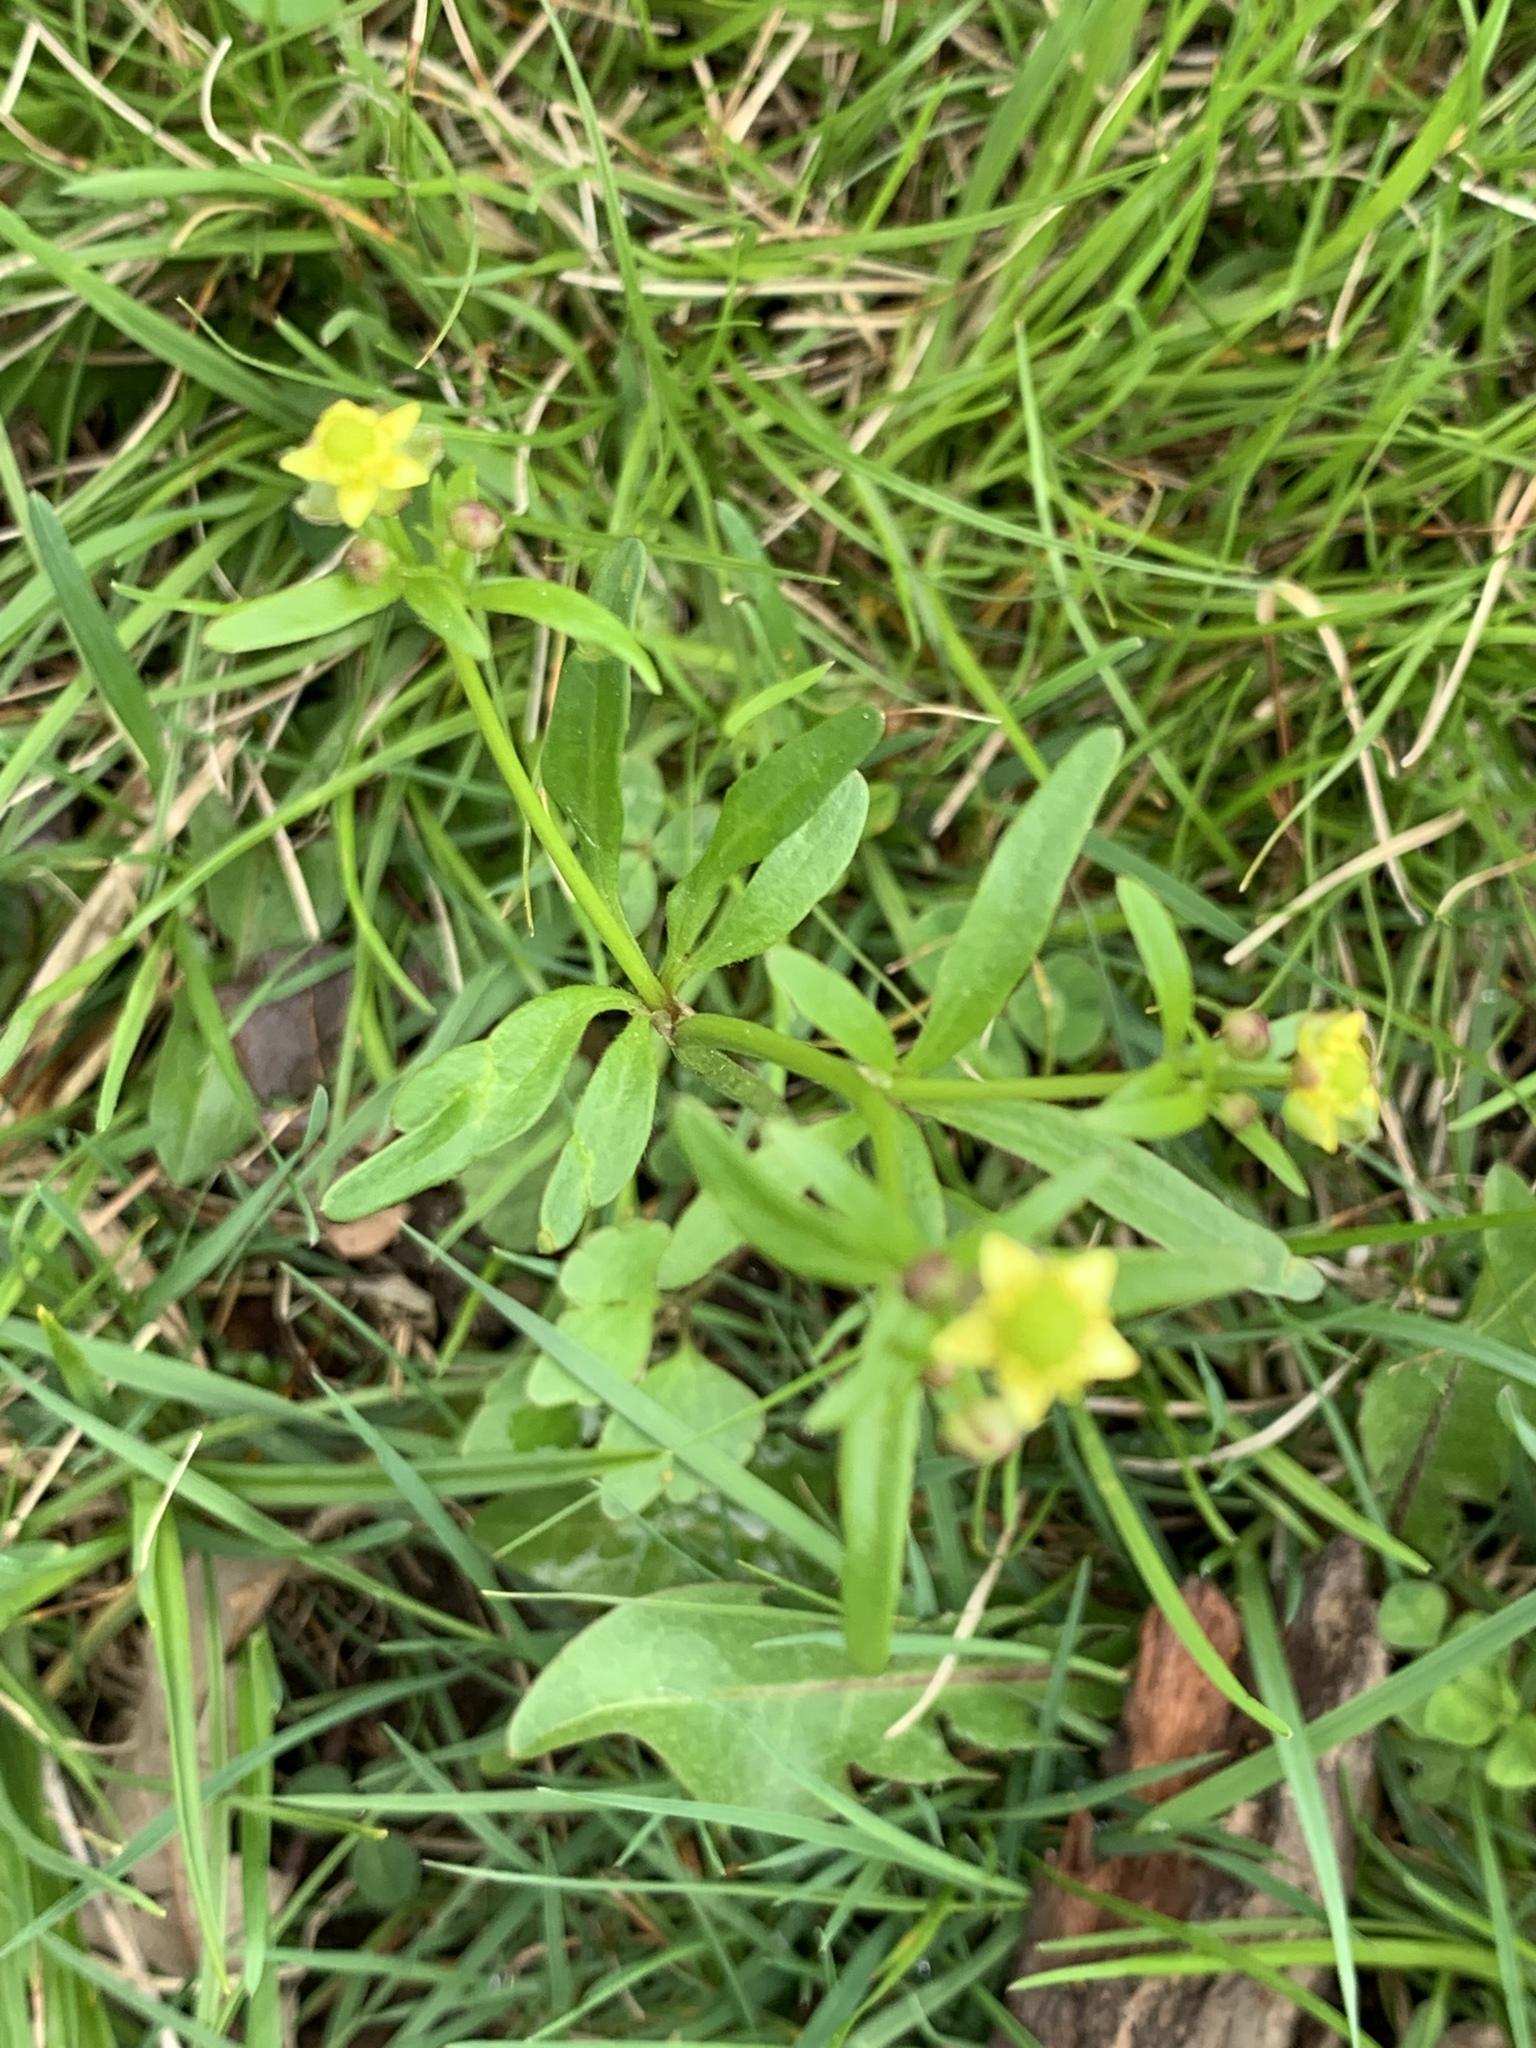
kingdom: Plantae
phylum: Tracheophyta
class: Magnoliopsida
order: Ranunculales
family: Ranunculaceae
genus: Ranunculus
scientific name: Ranunculus abortivus
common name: Early wood buttercup
